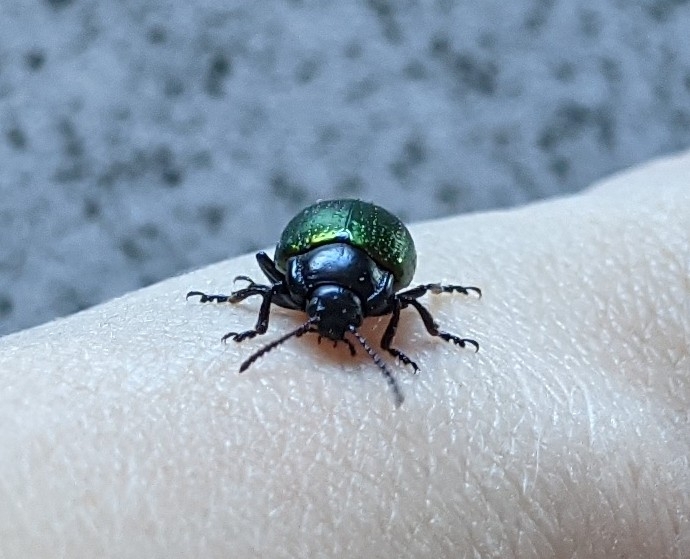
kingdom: Animalia
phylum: Arthropoda
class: Insecta
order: Coleoptera
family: Chrysomelidae
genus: Chrysolina
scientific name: Chrysolina auripennis
